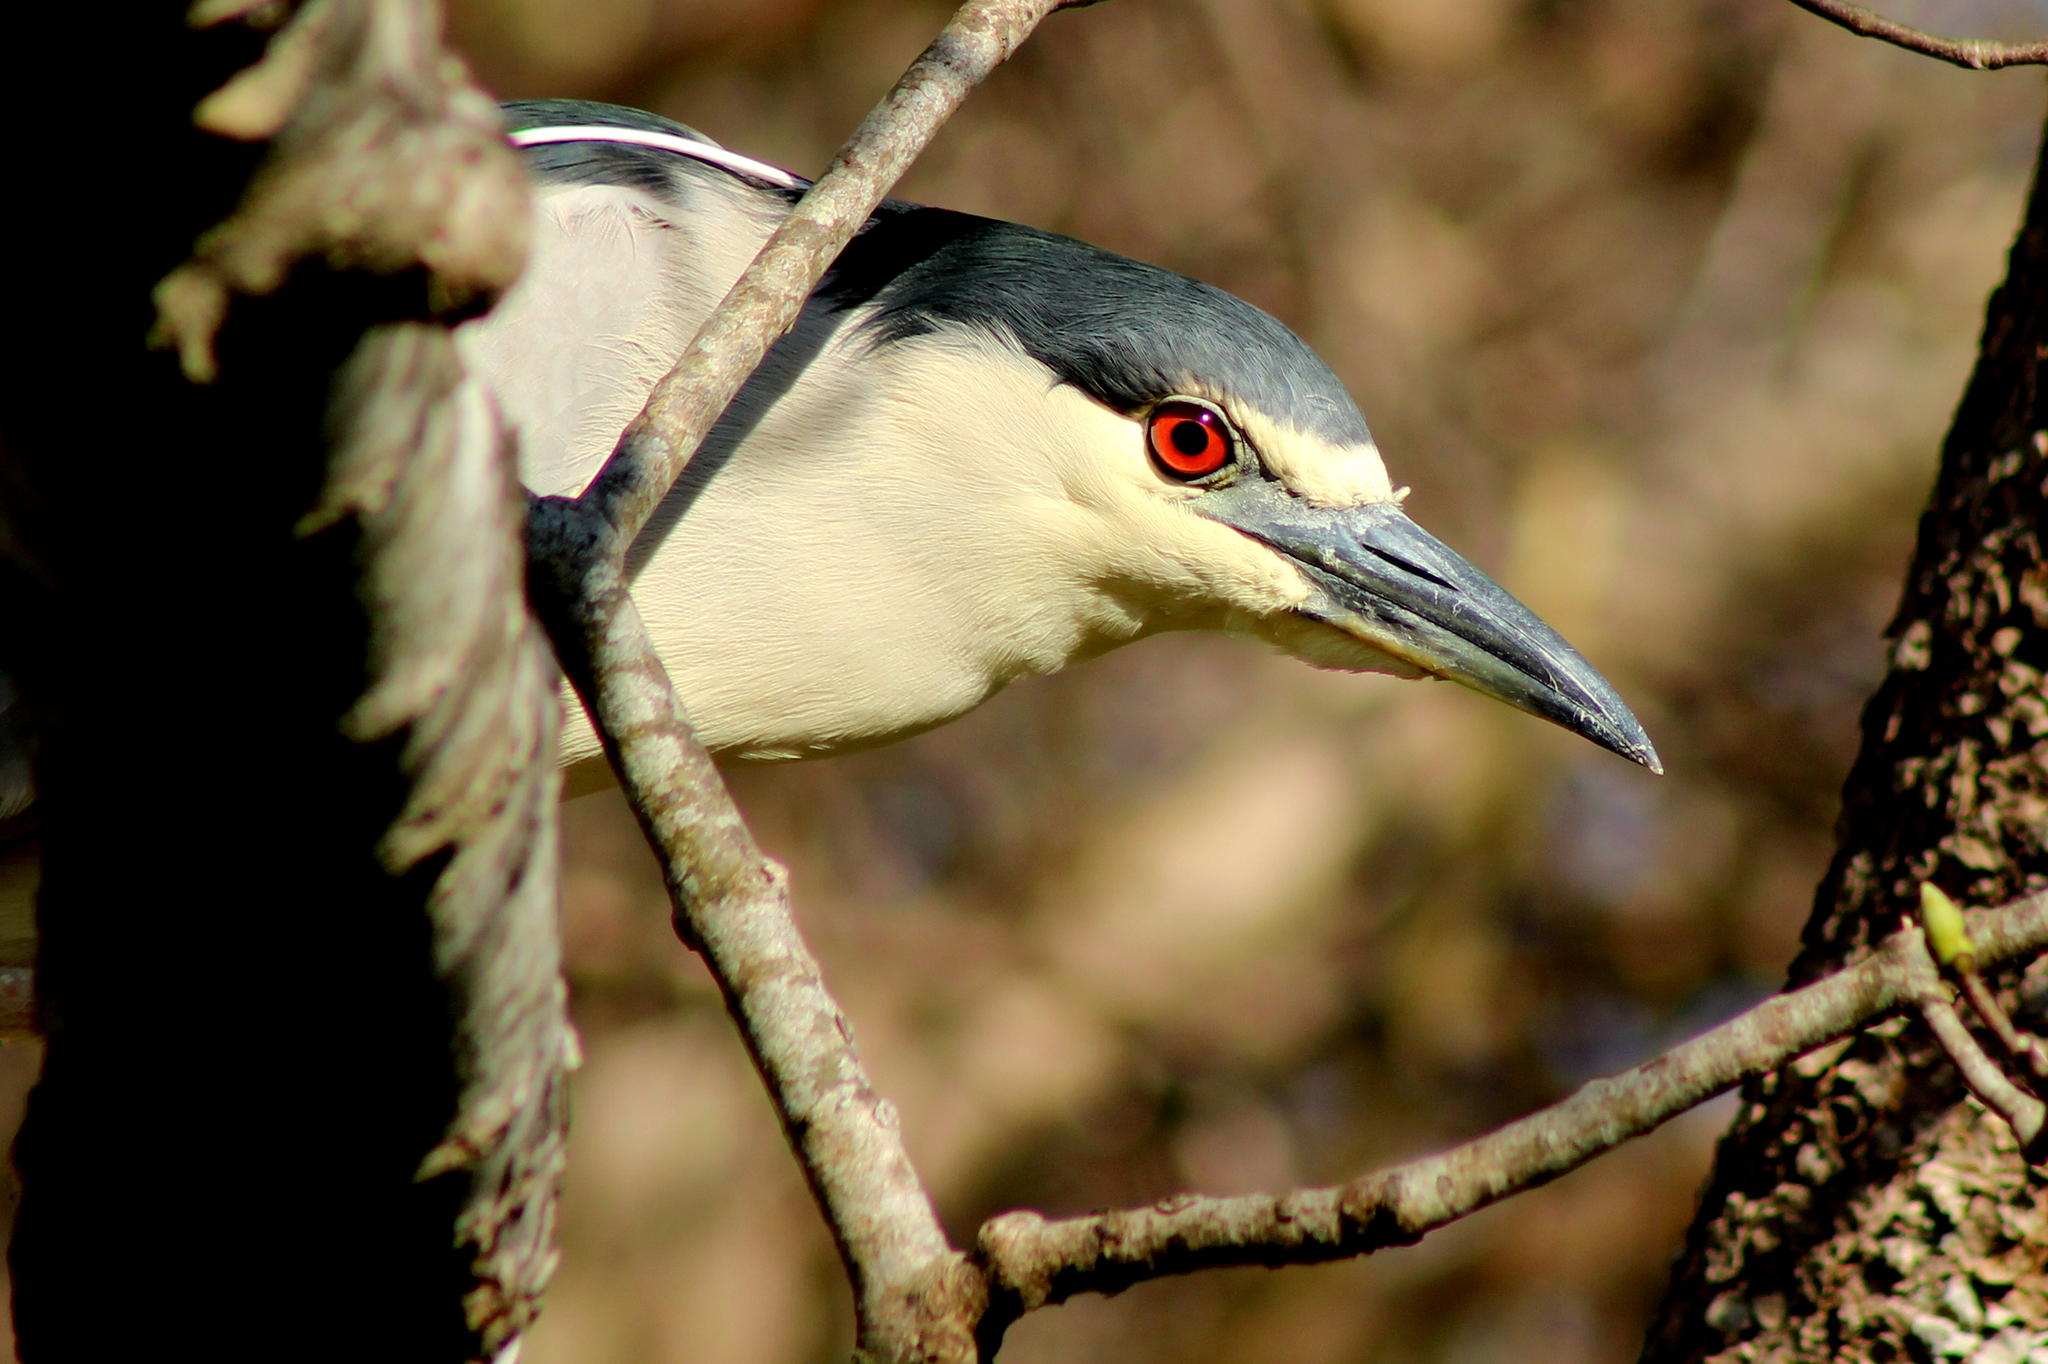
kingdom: Animalia
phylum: Chordata
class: Aves
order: Pelecaniformes
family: Ardeidae
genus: Nycticorax
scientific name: Nycticorax nycticorax
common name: Black-crowned night heron
